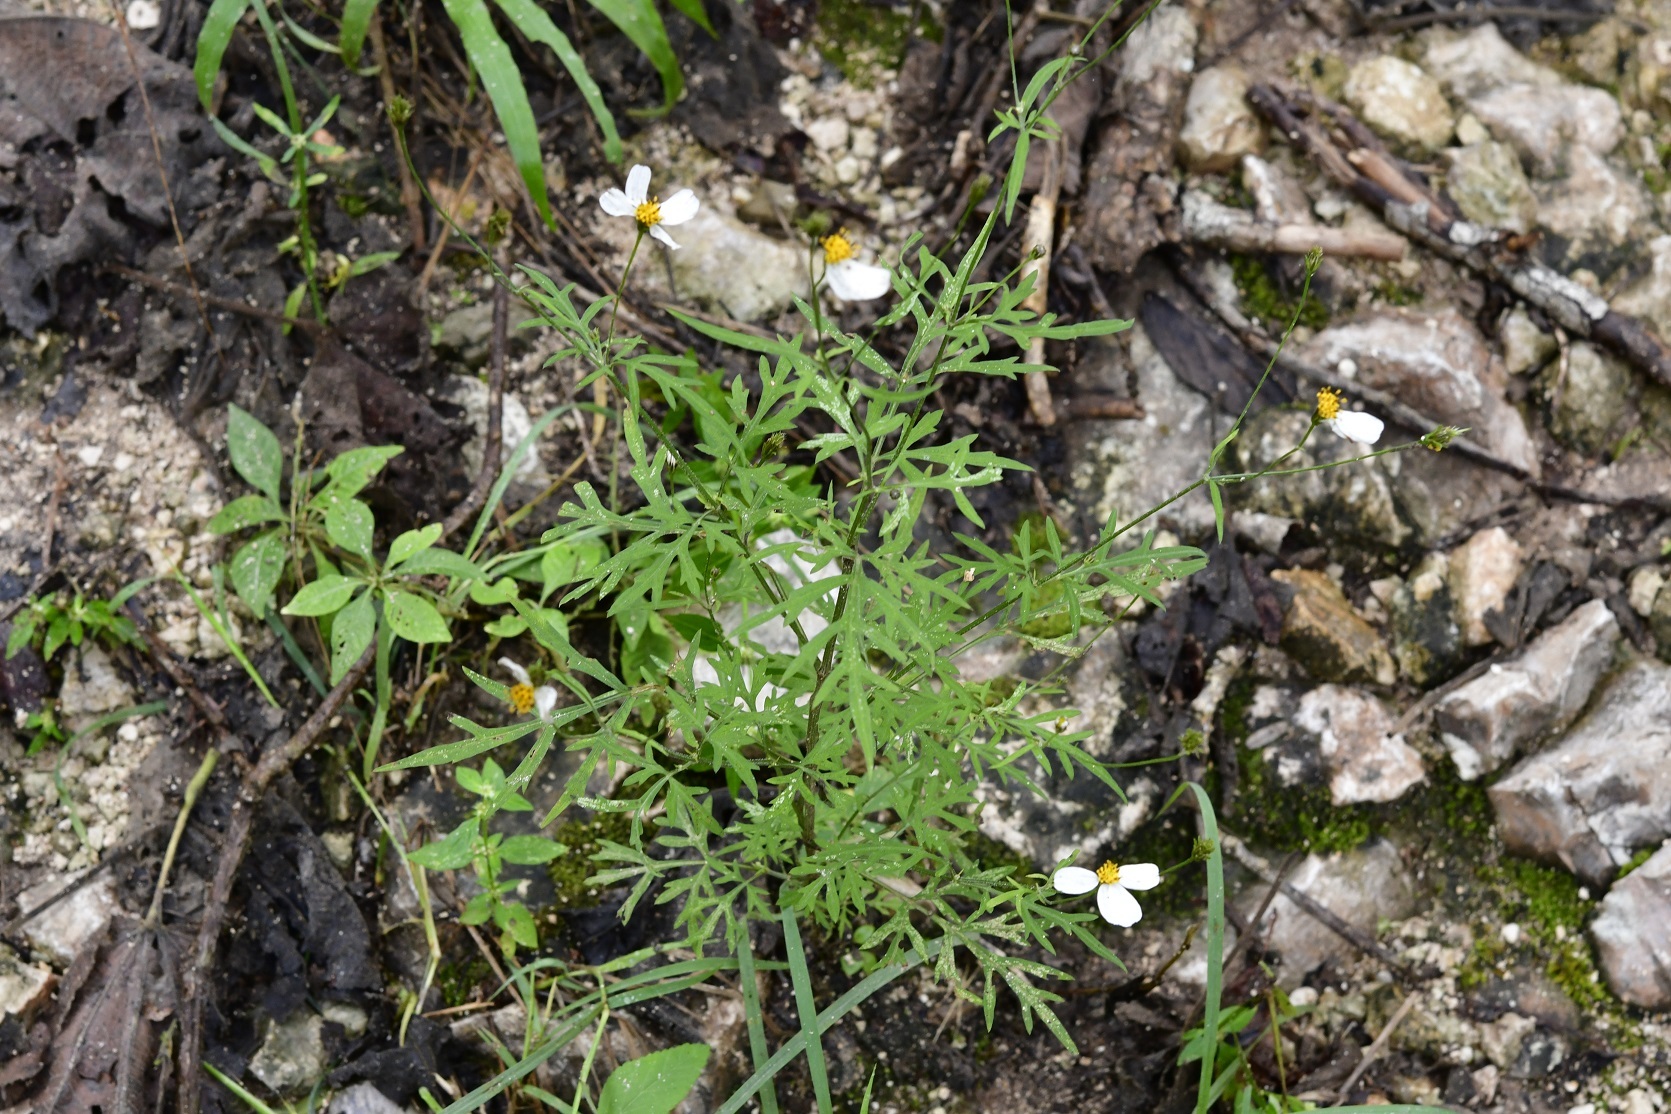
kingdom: Plantae
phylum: Tracheophyta
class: Magnoliopsida
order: Asterales
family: Asteraceae
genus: Bidens
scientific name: Bidens chrysanthemifolia
